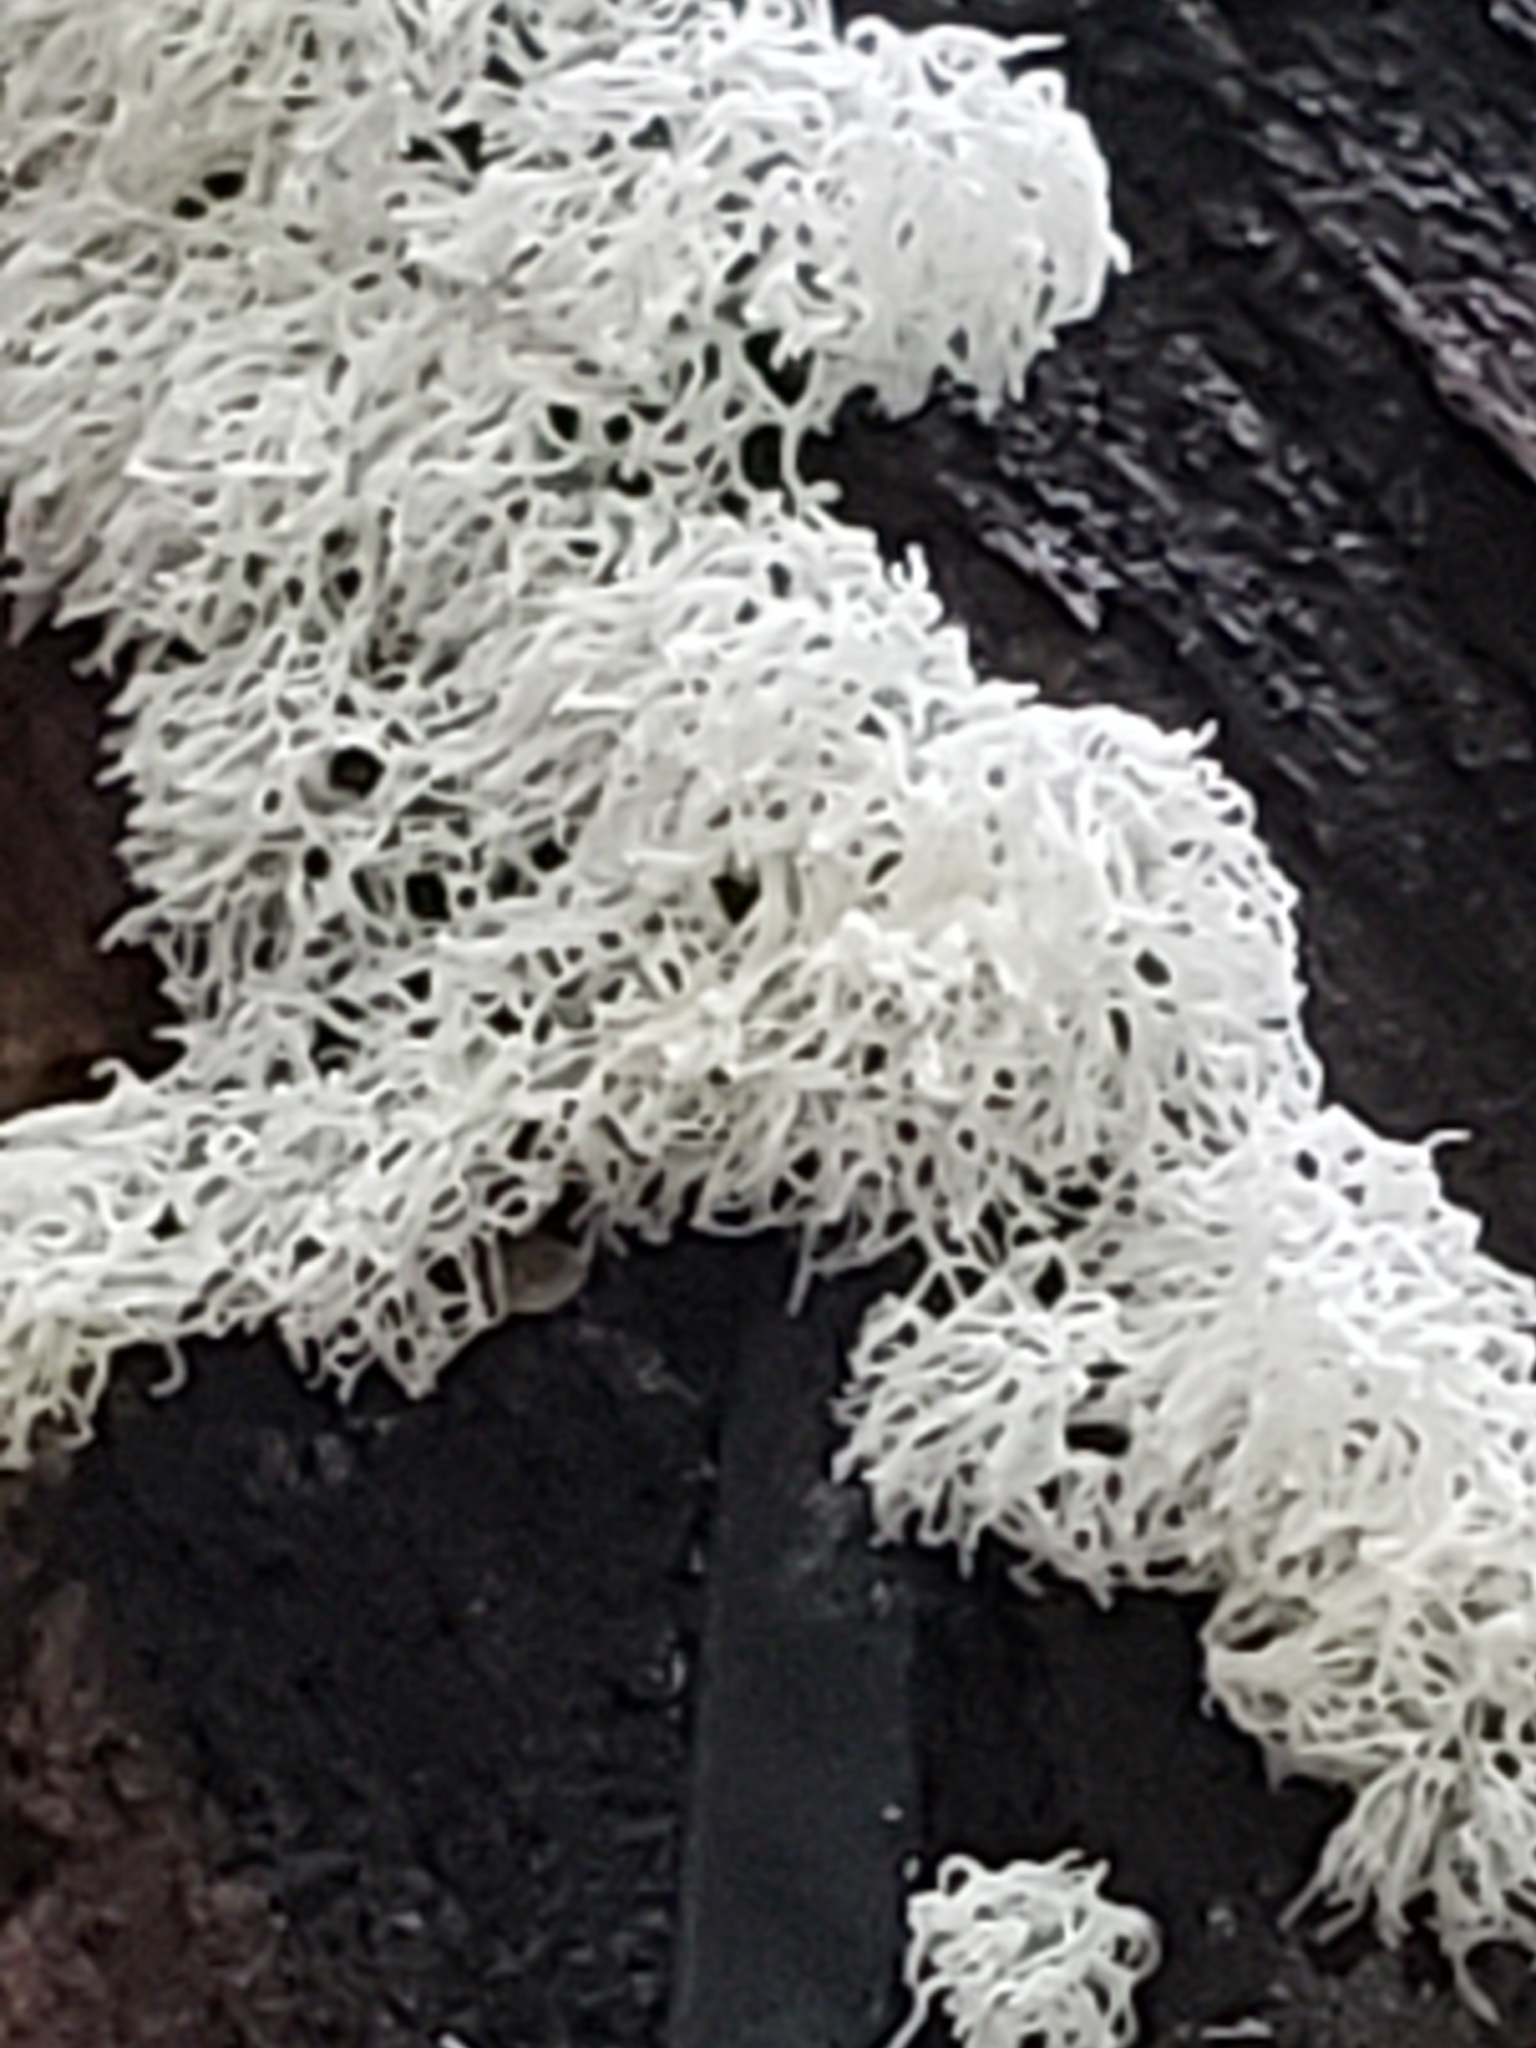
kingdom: Protozoa
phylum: Mycetozoa
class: Protosteliomycetes
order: Ceratiomyxales
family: Ceratiomyxaceae
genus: Ceratiomyxa
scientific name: Ceratiomyxa fruticulosa
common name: Honeycomb coral slime mold
